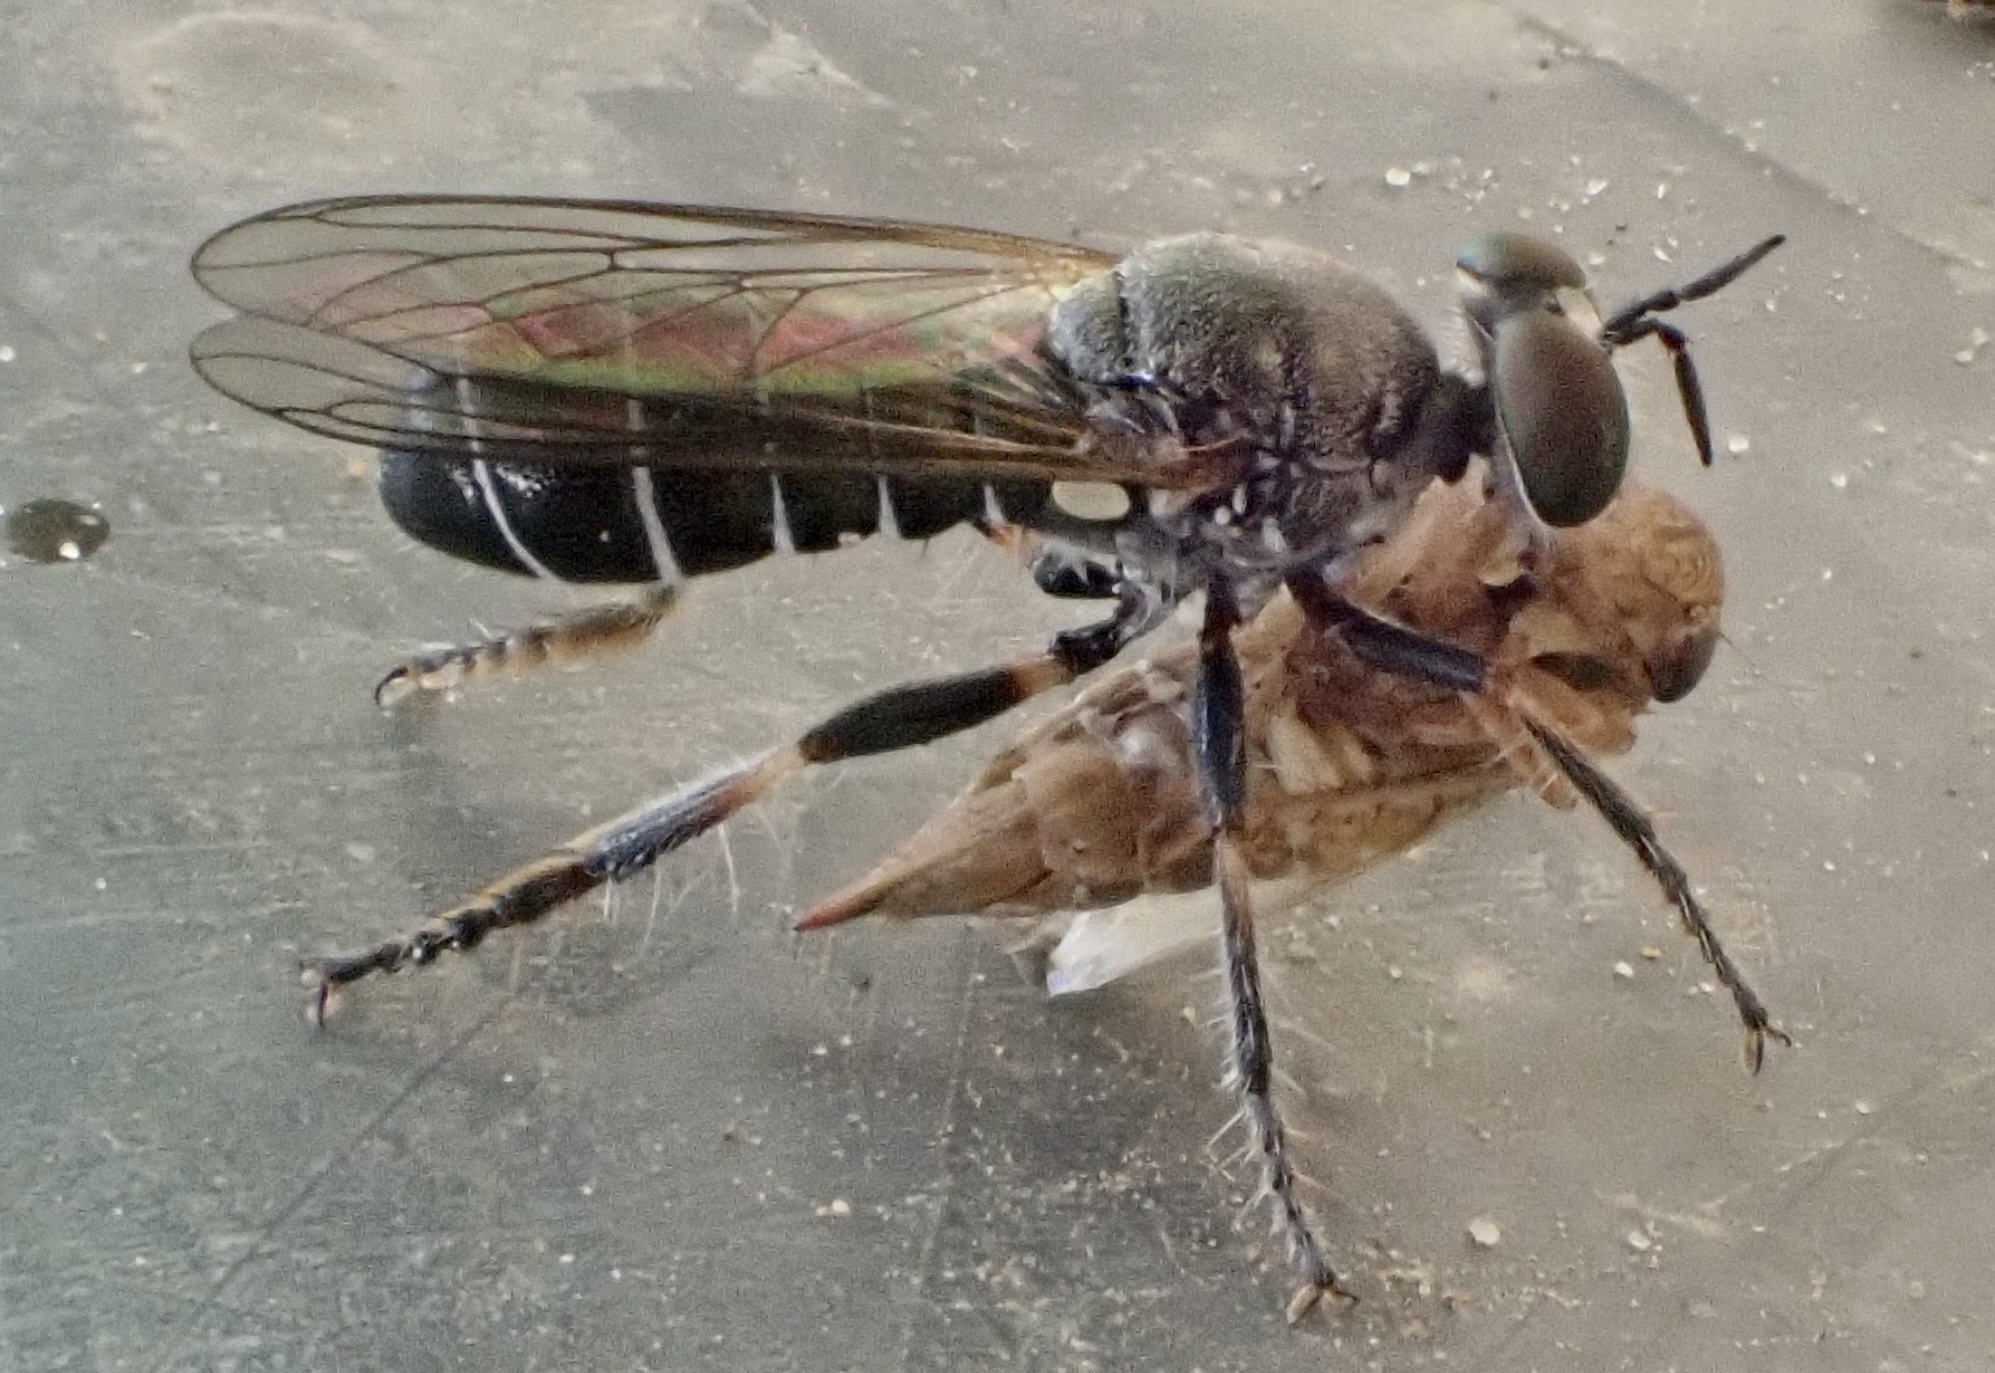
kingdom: Animalia
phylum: Arthropoda
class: Insecta
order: Diptera
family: Asilidae
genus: Atomosia
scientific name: Atomosia puella
